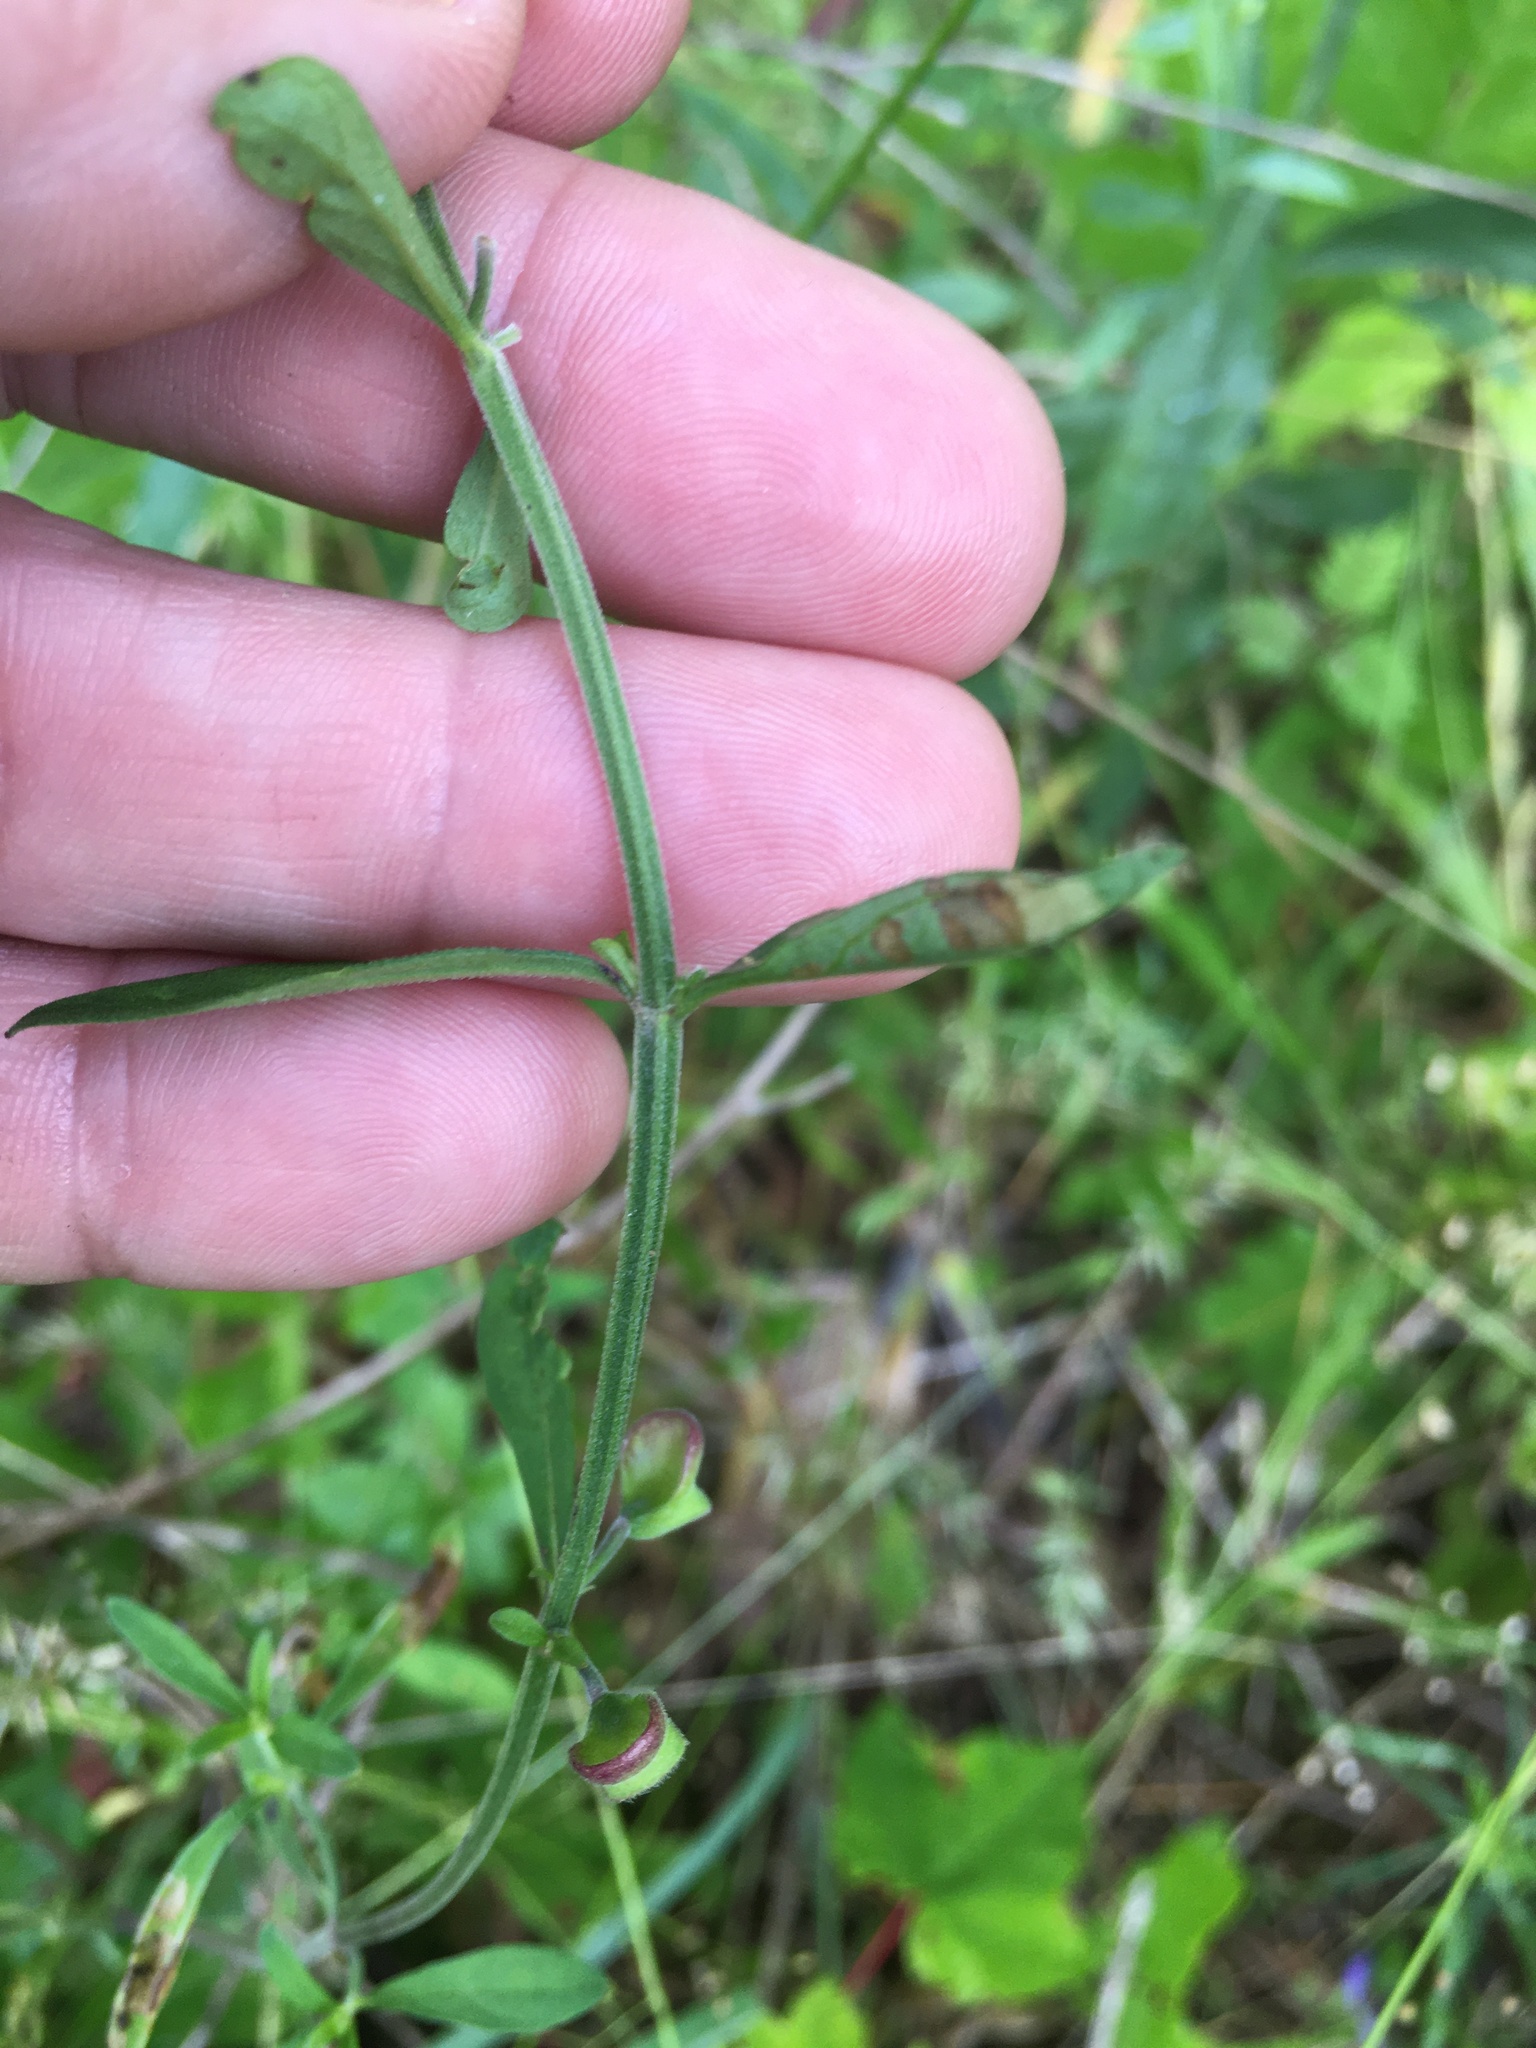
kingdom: Plantae
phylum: Tracheophyta
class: Magnoliopsida
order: Lamiales
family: Lamiaceae
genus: Scutellaria
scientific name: Scutellaria integrifolia
